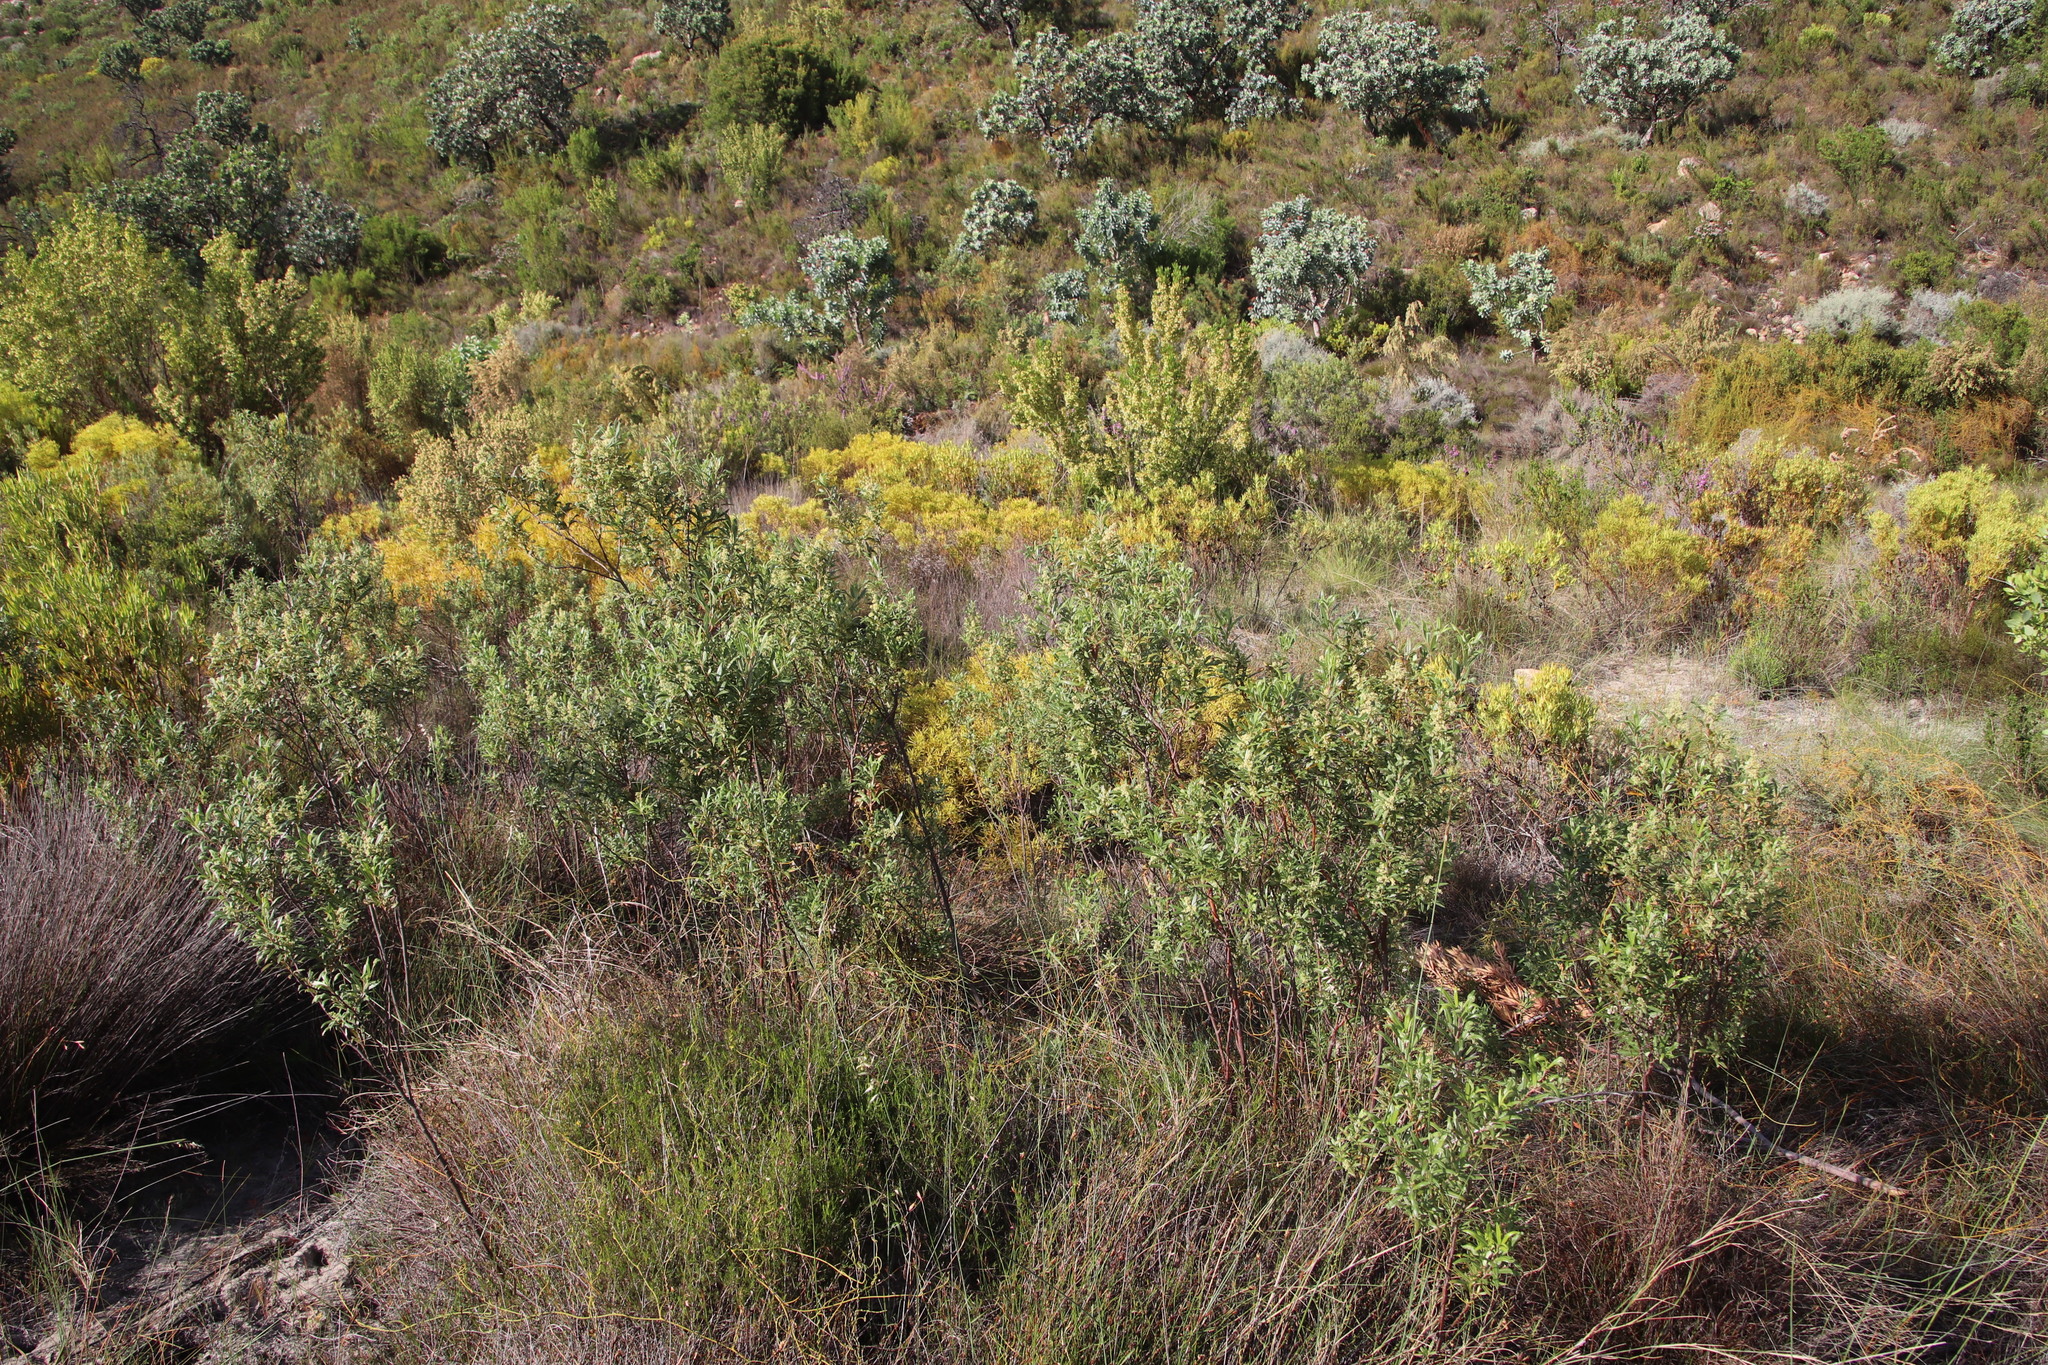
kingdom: Plantae
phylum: Tracheophyta
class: Magnoliopsida
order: Sapindales
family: Anacardiaceae
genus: Searsia
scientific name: Searsia angustifolia
